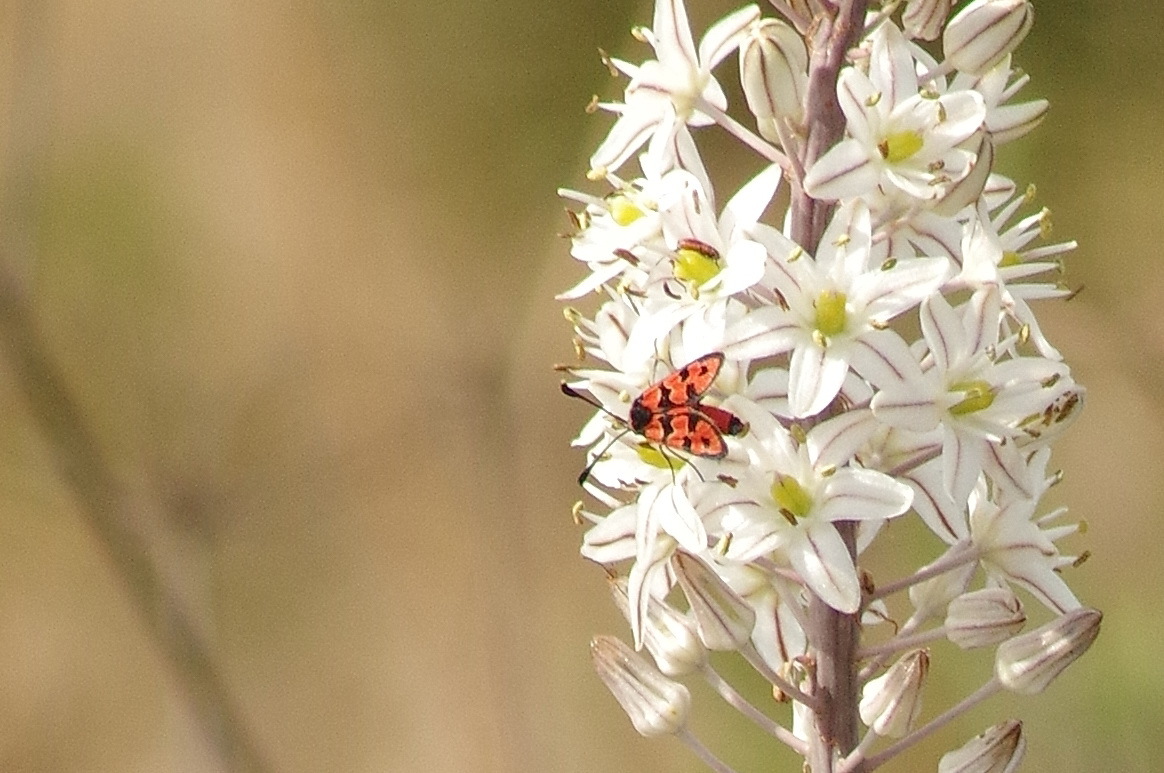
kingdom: Animalia
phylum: Arthropoda
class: Insecta
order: Lepidoptera
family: Zygaenidae
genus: Zygaena
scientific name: Zygaena fausta
